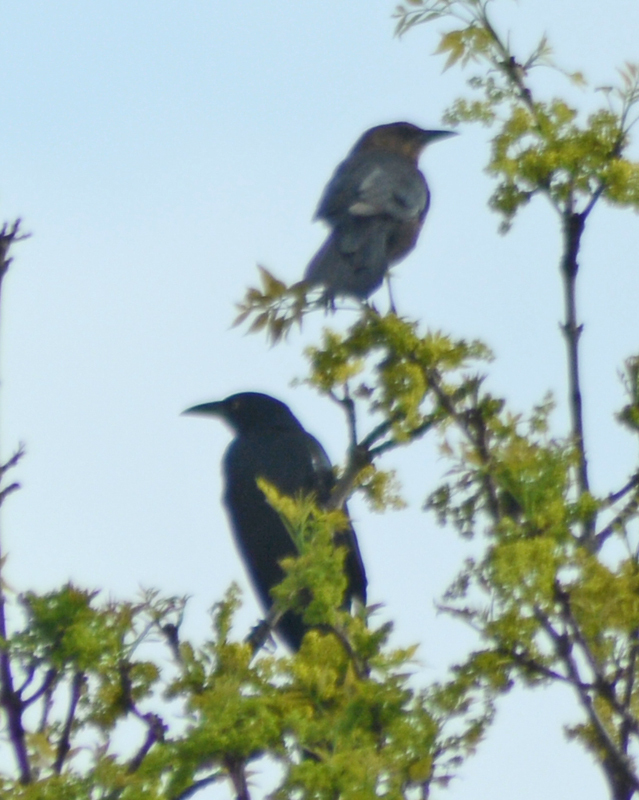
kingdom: Animalia
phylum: Chordata
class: Aves
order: Passeriformes
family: Icteridae
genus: Quiscalus
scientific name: Quiscalus mexicanus
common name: Great-tailed grackle
